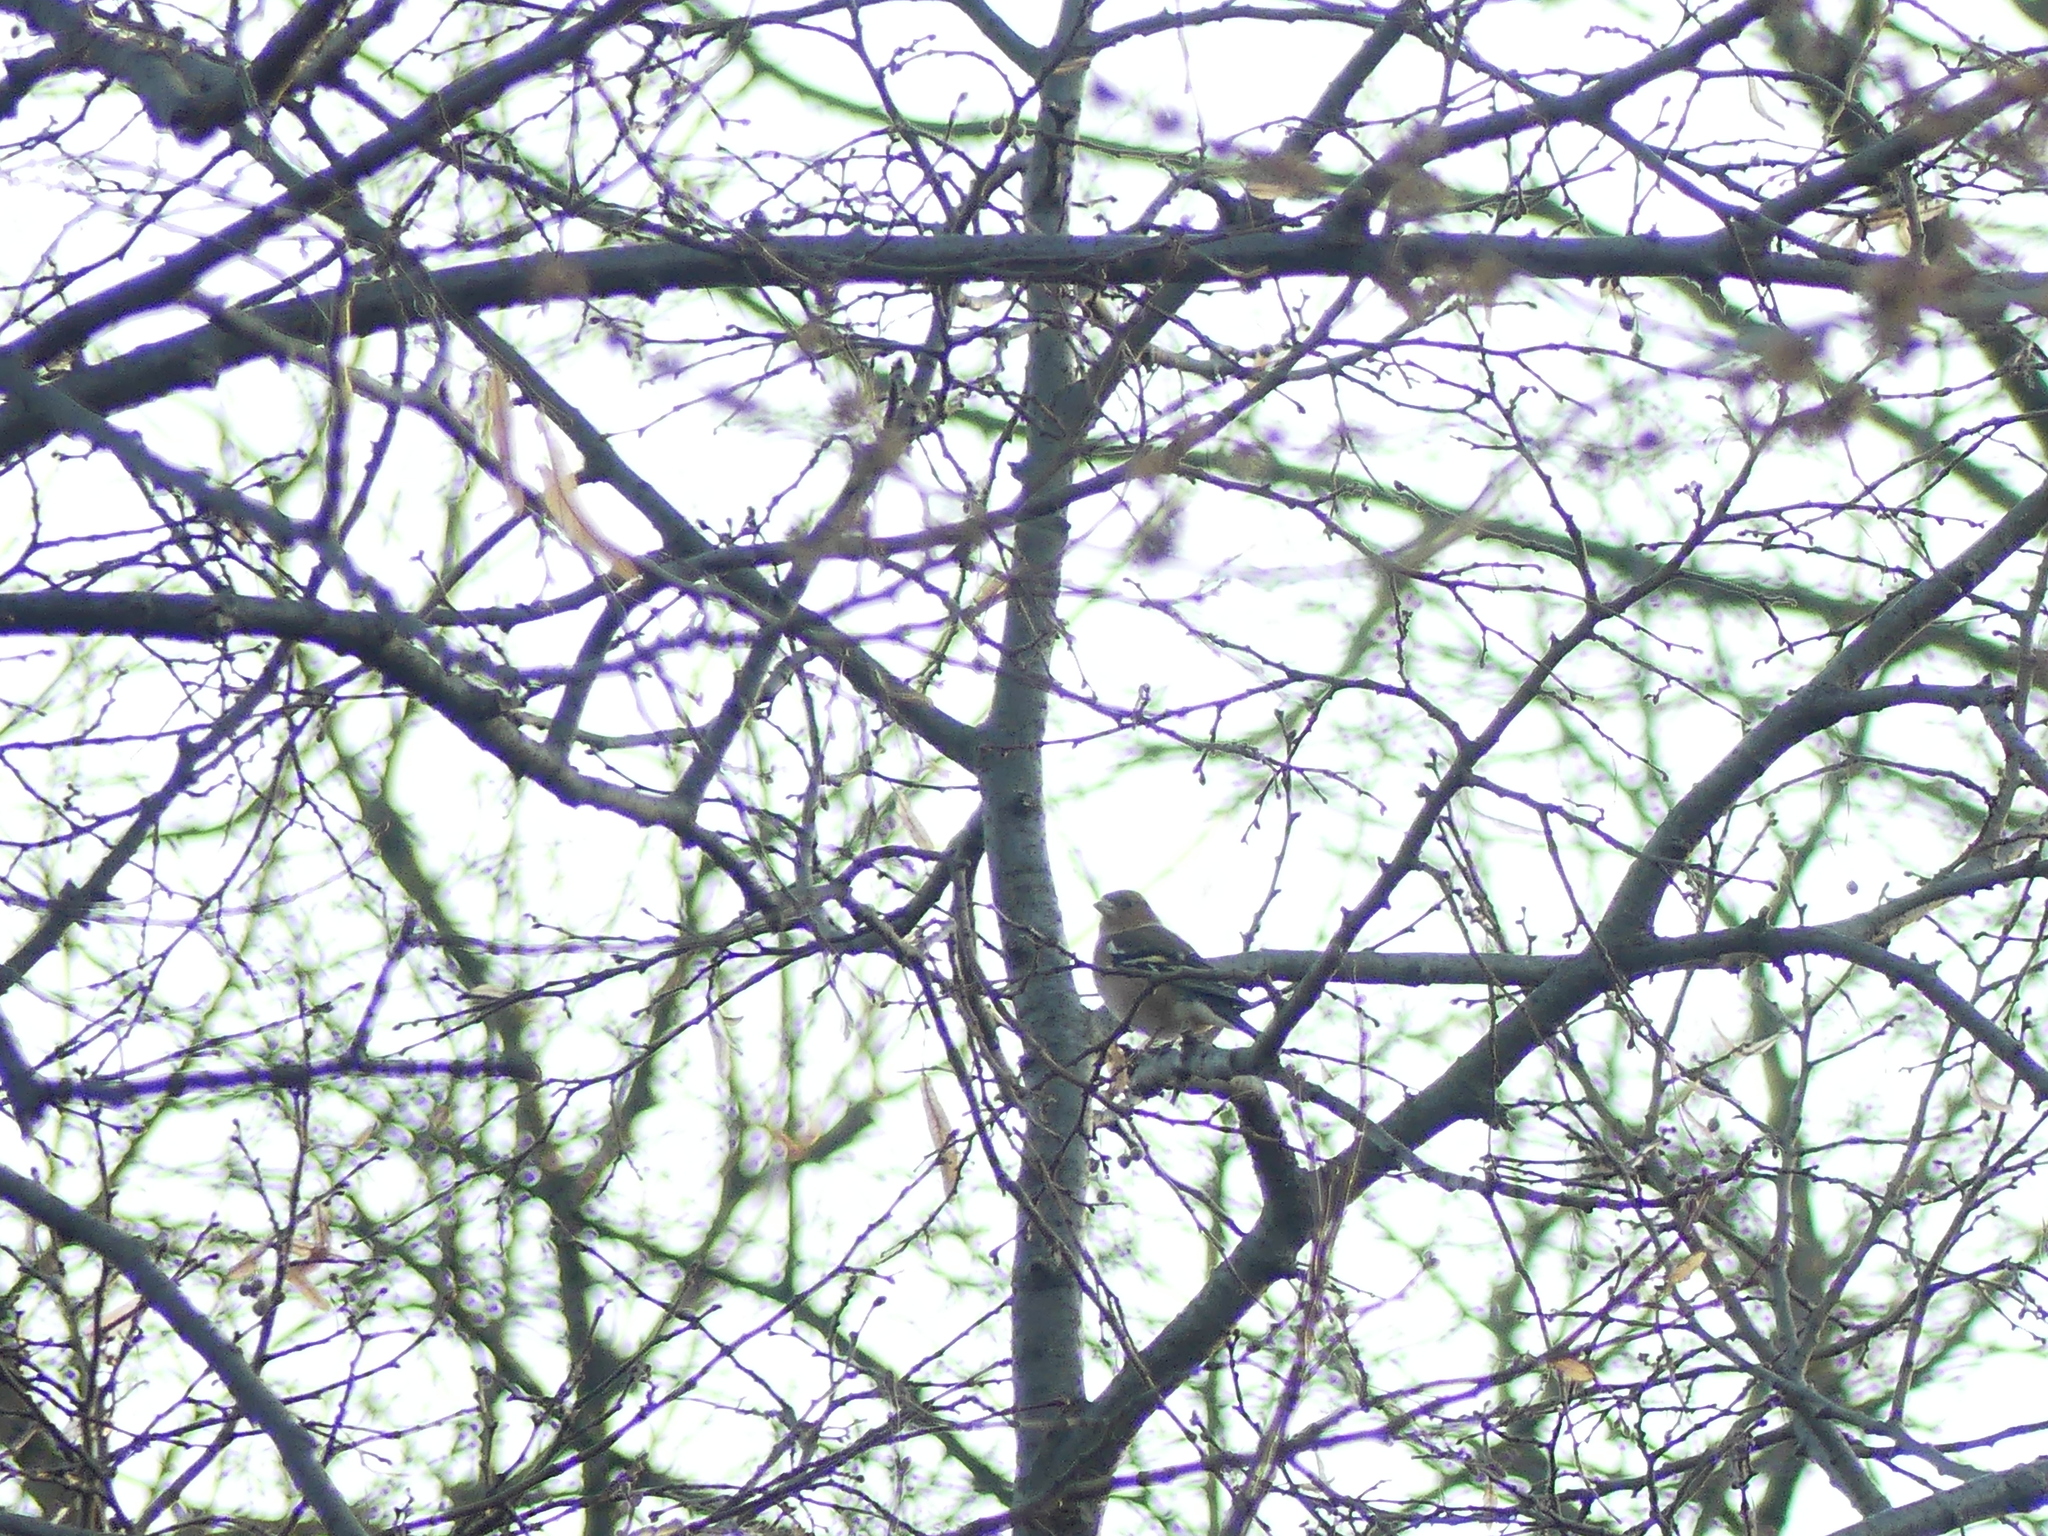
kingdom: Animalia
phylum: Chordata
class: Aves
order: Passeriformes
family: Fringillidae
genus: Fringilla
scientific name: Fringilla coelebs
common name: Common chaffinch
